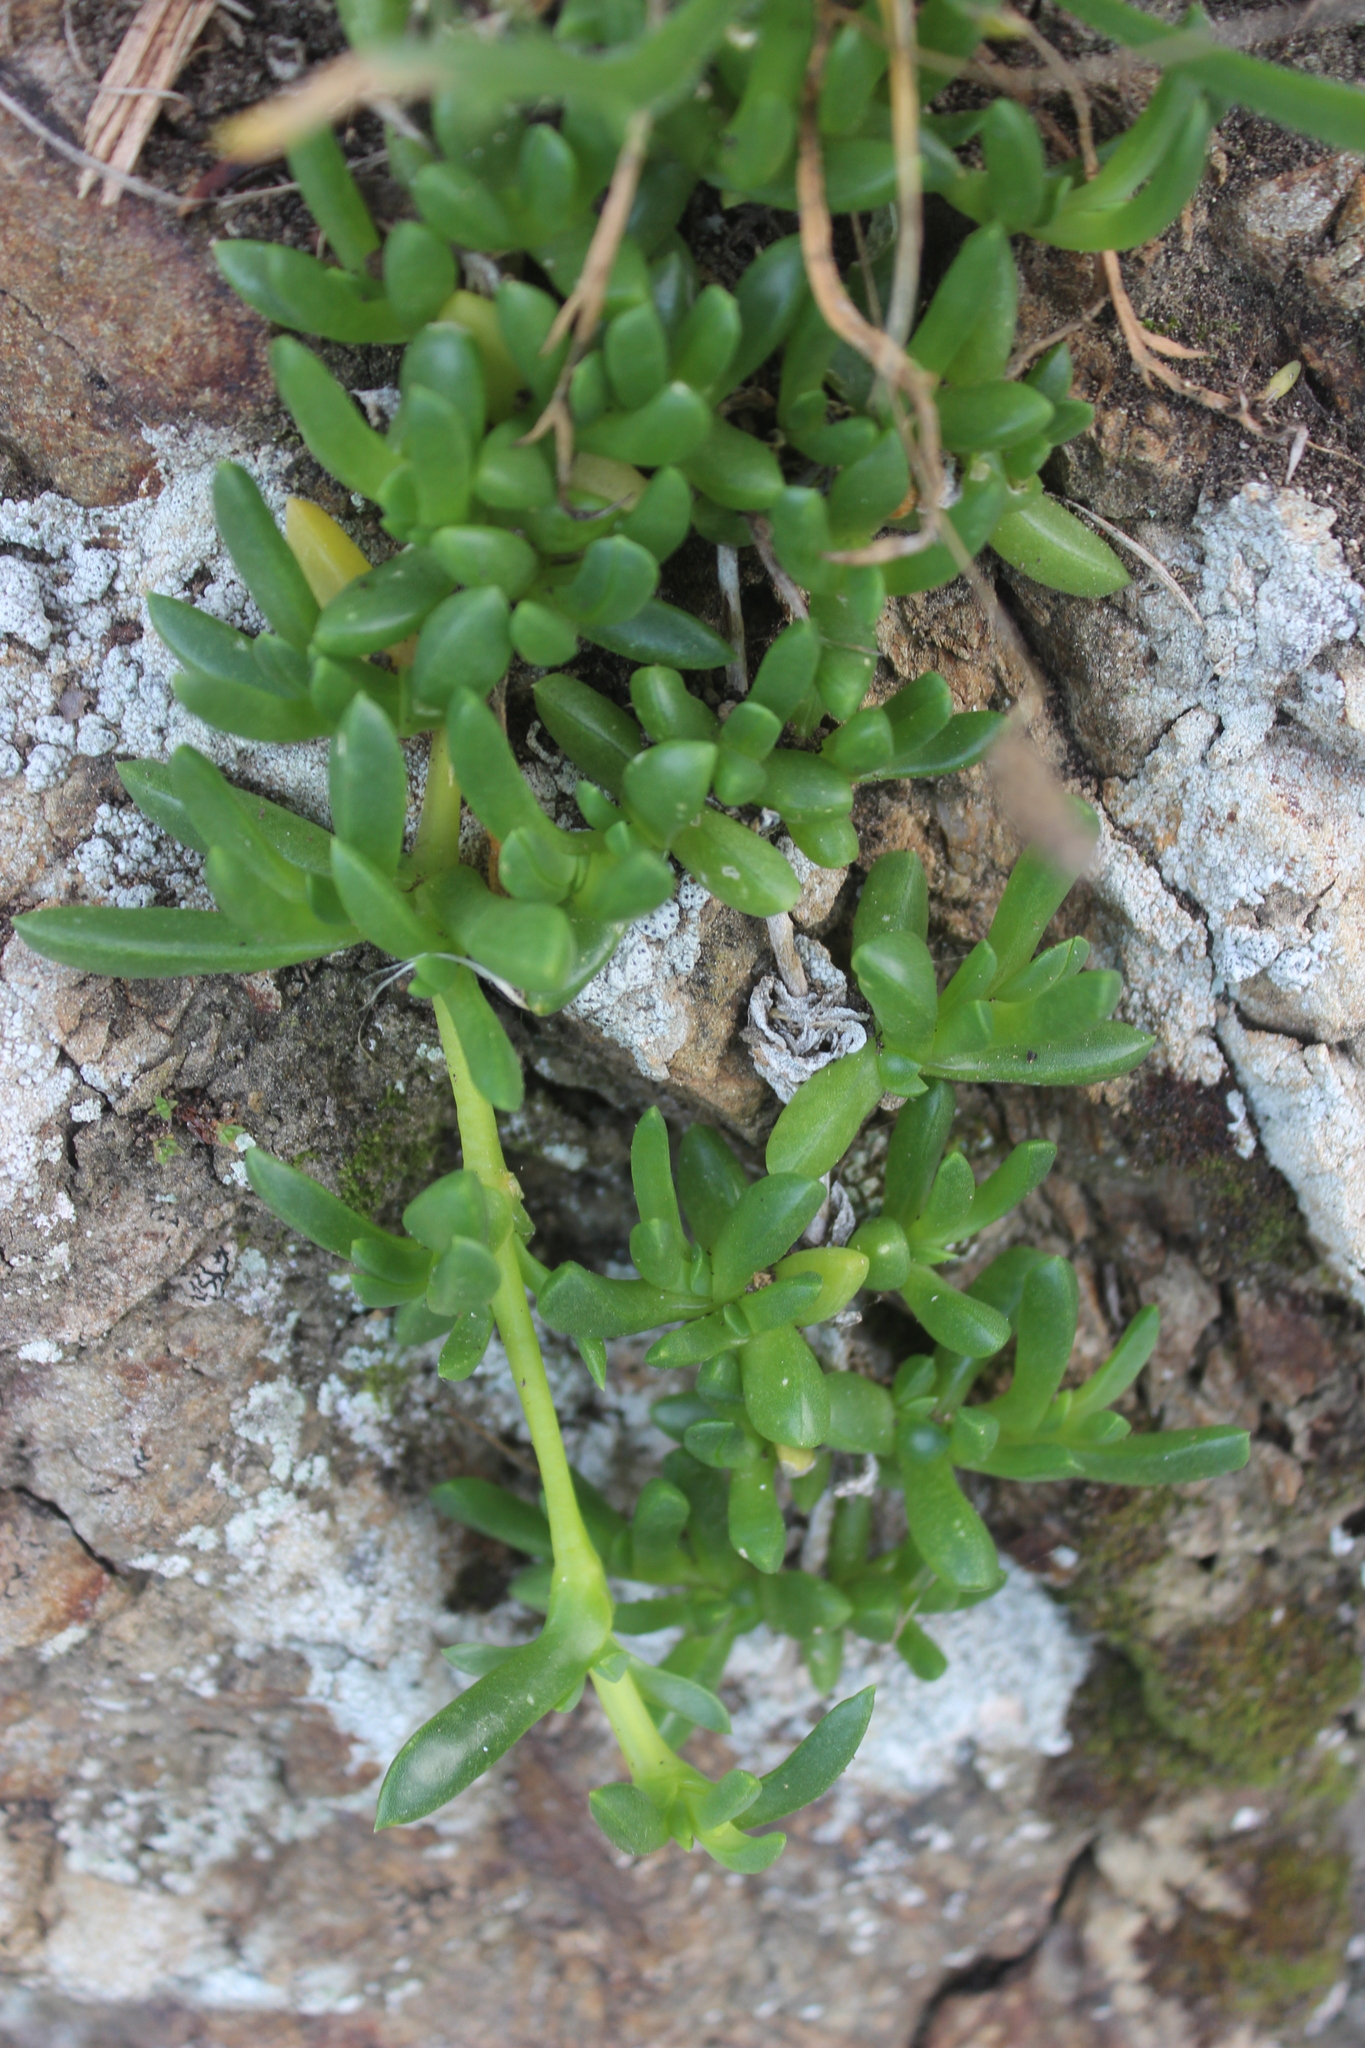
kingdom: Plantae
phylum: Tracheophyta
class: Magnoliopsida
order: Caryophyllales
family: Aizoaceae
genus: Disphyma
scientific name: Disphyma australe
